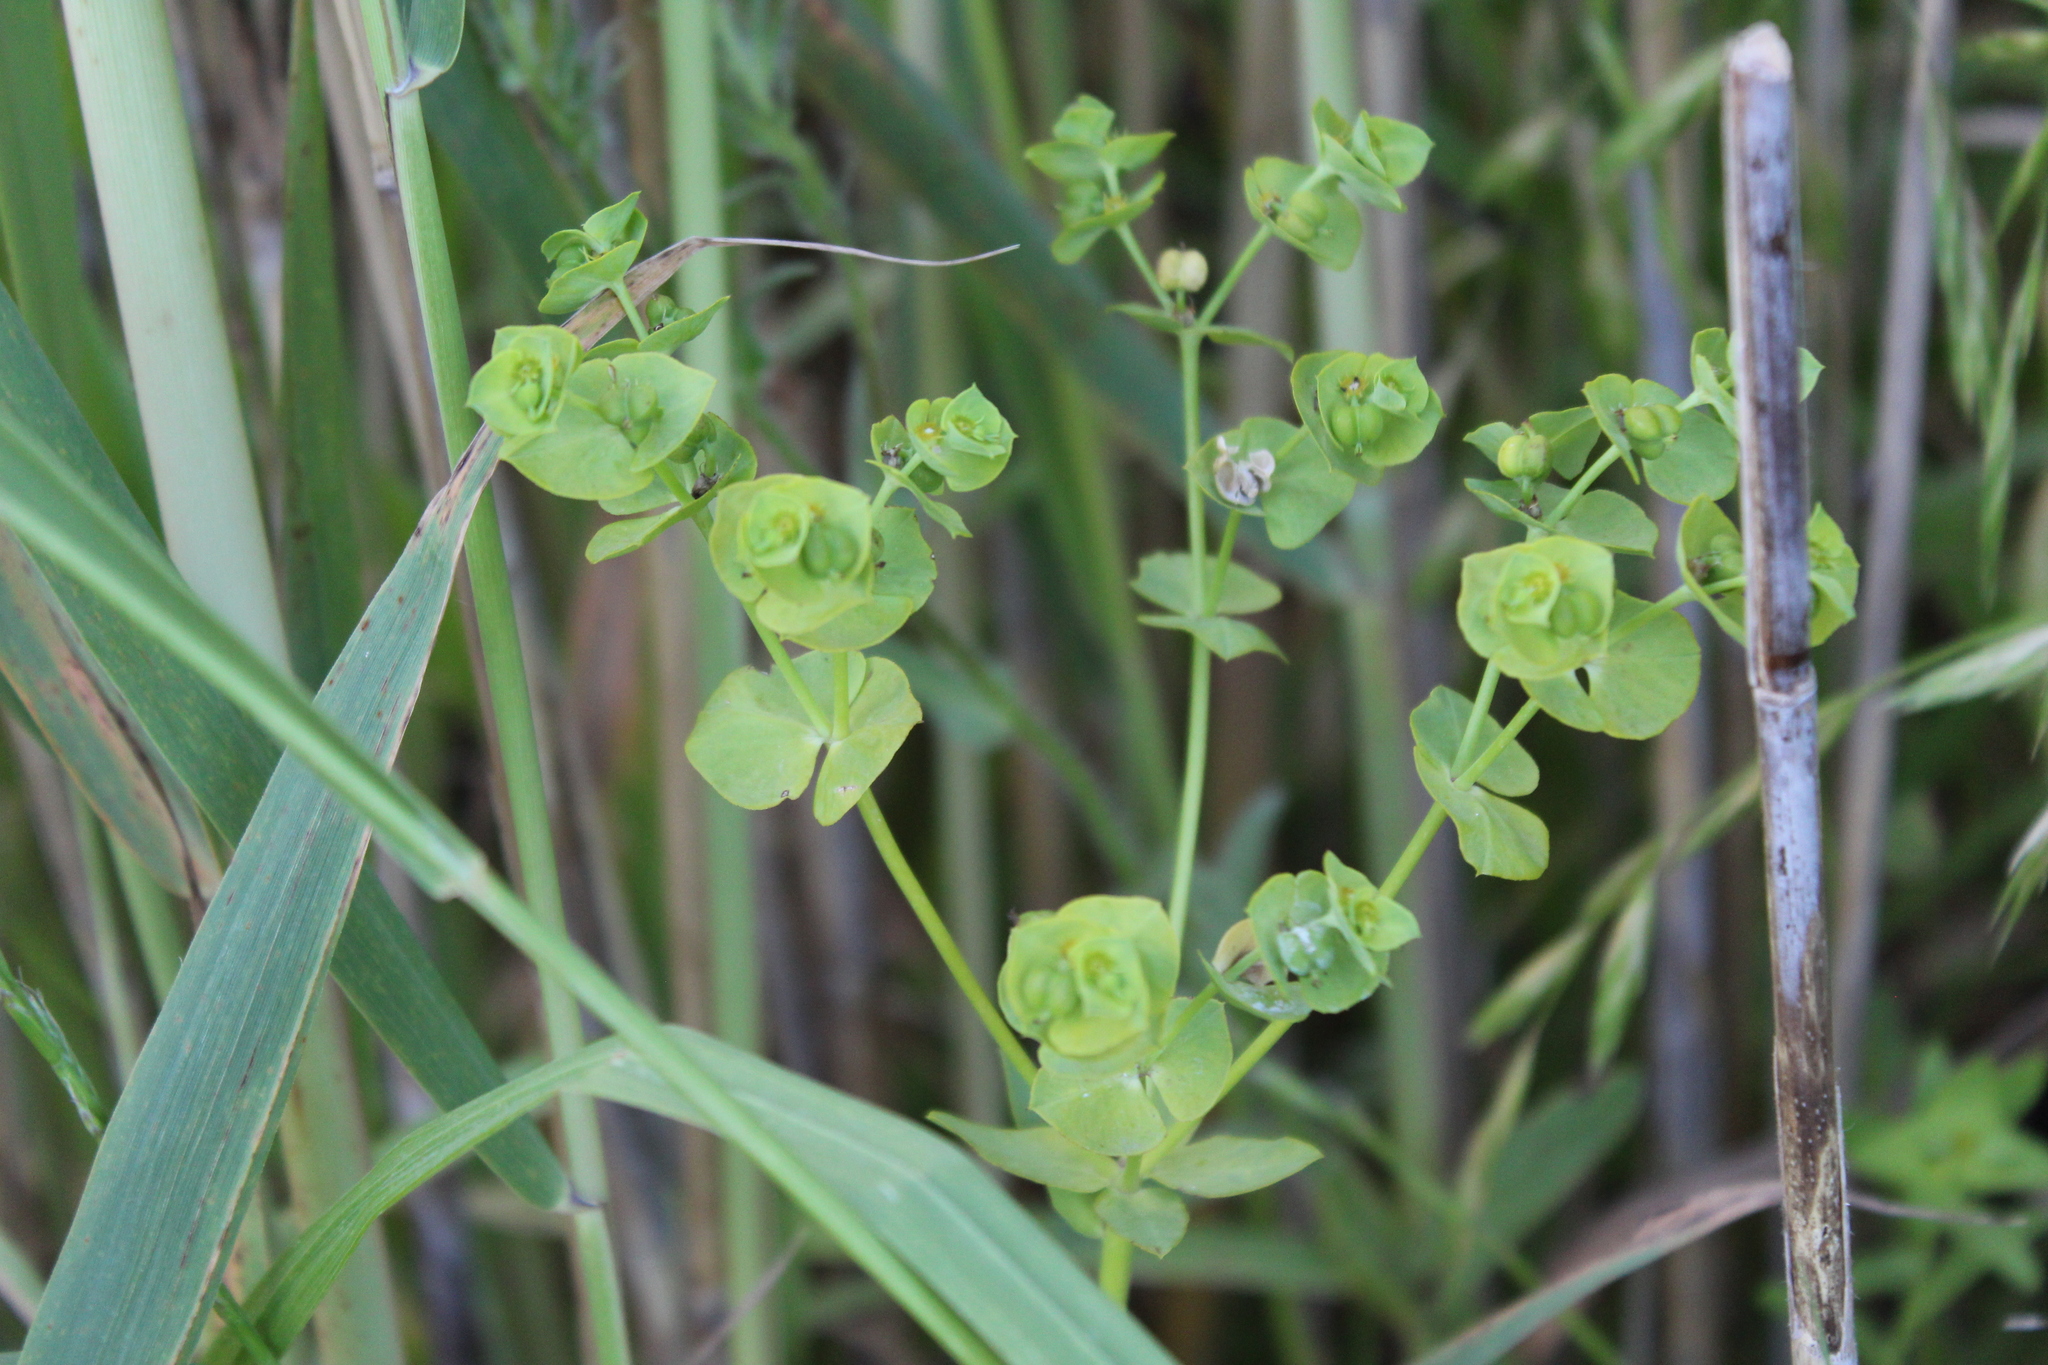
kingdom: Plantae
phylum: Tracheophyta
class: Magnoliopsida
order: Malpighiales
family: Euphorbiaceae
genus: Euphorbia
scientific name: Euphorbia terracina
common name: Geraldton carnation weed
